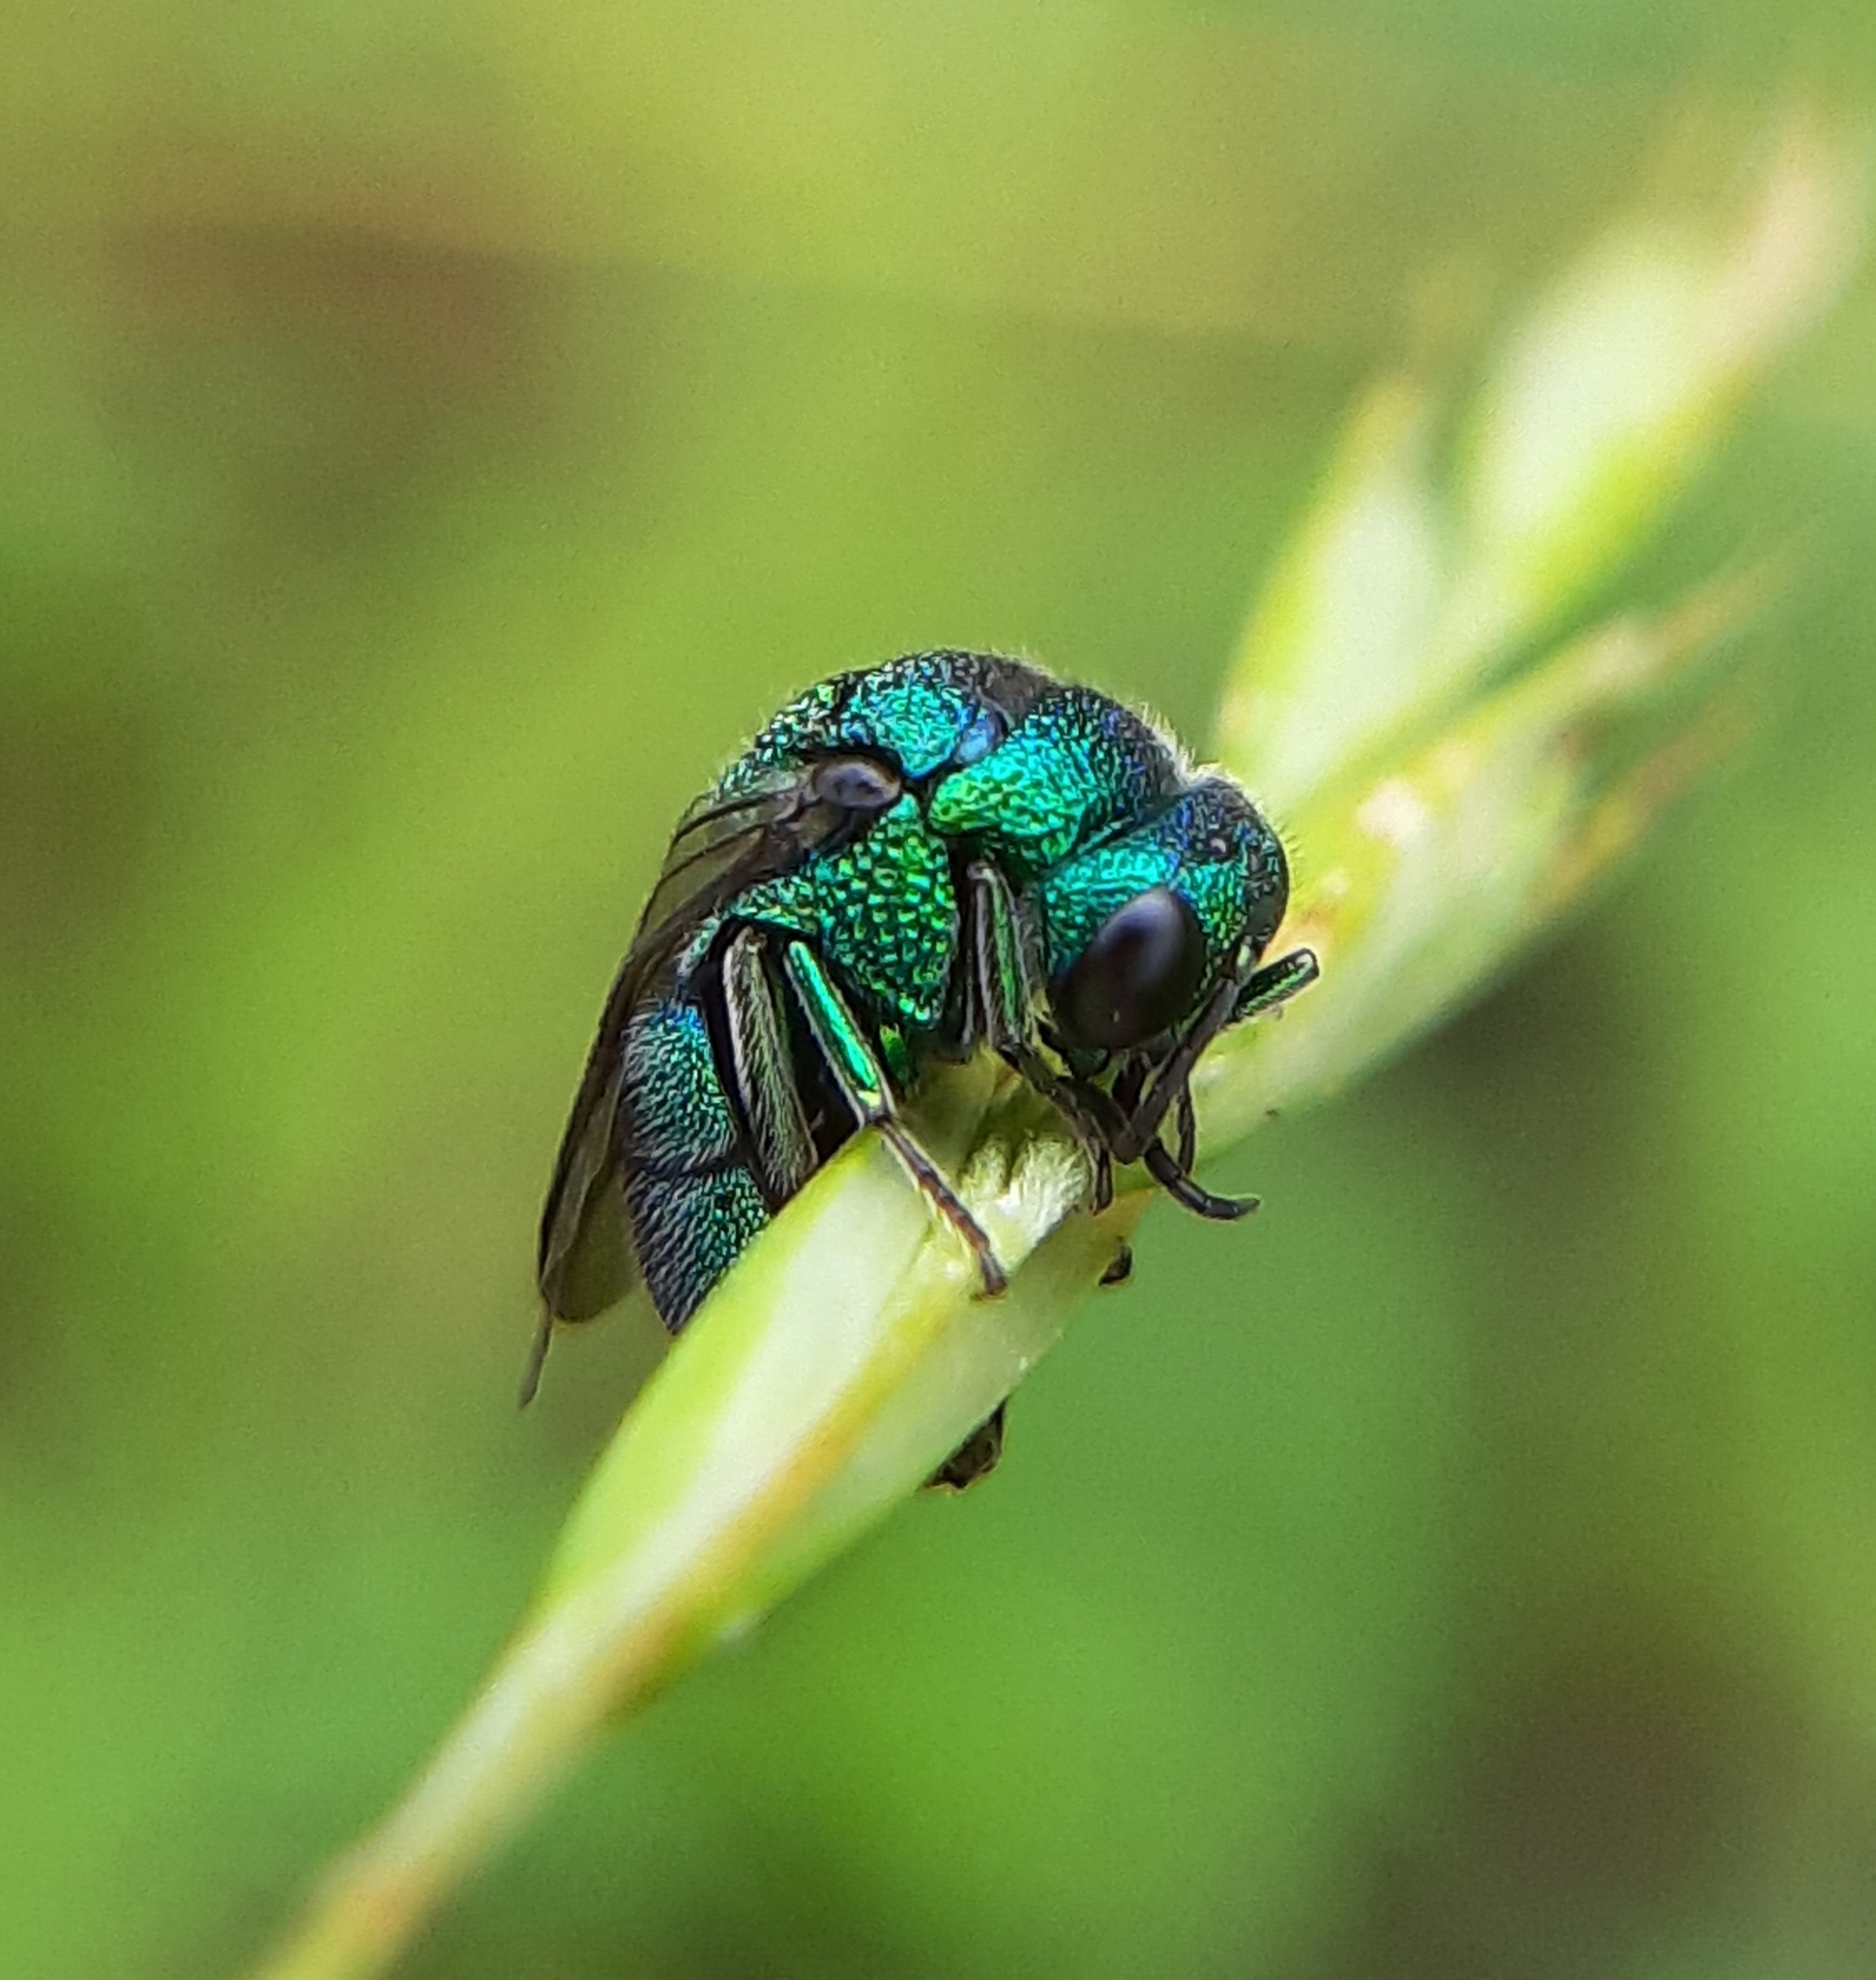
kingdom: Animalia
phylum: Arthropoda
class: Insecta
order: Hymenoptera
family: Chrysididae
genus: Holopyga
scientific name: Holopyga
